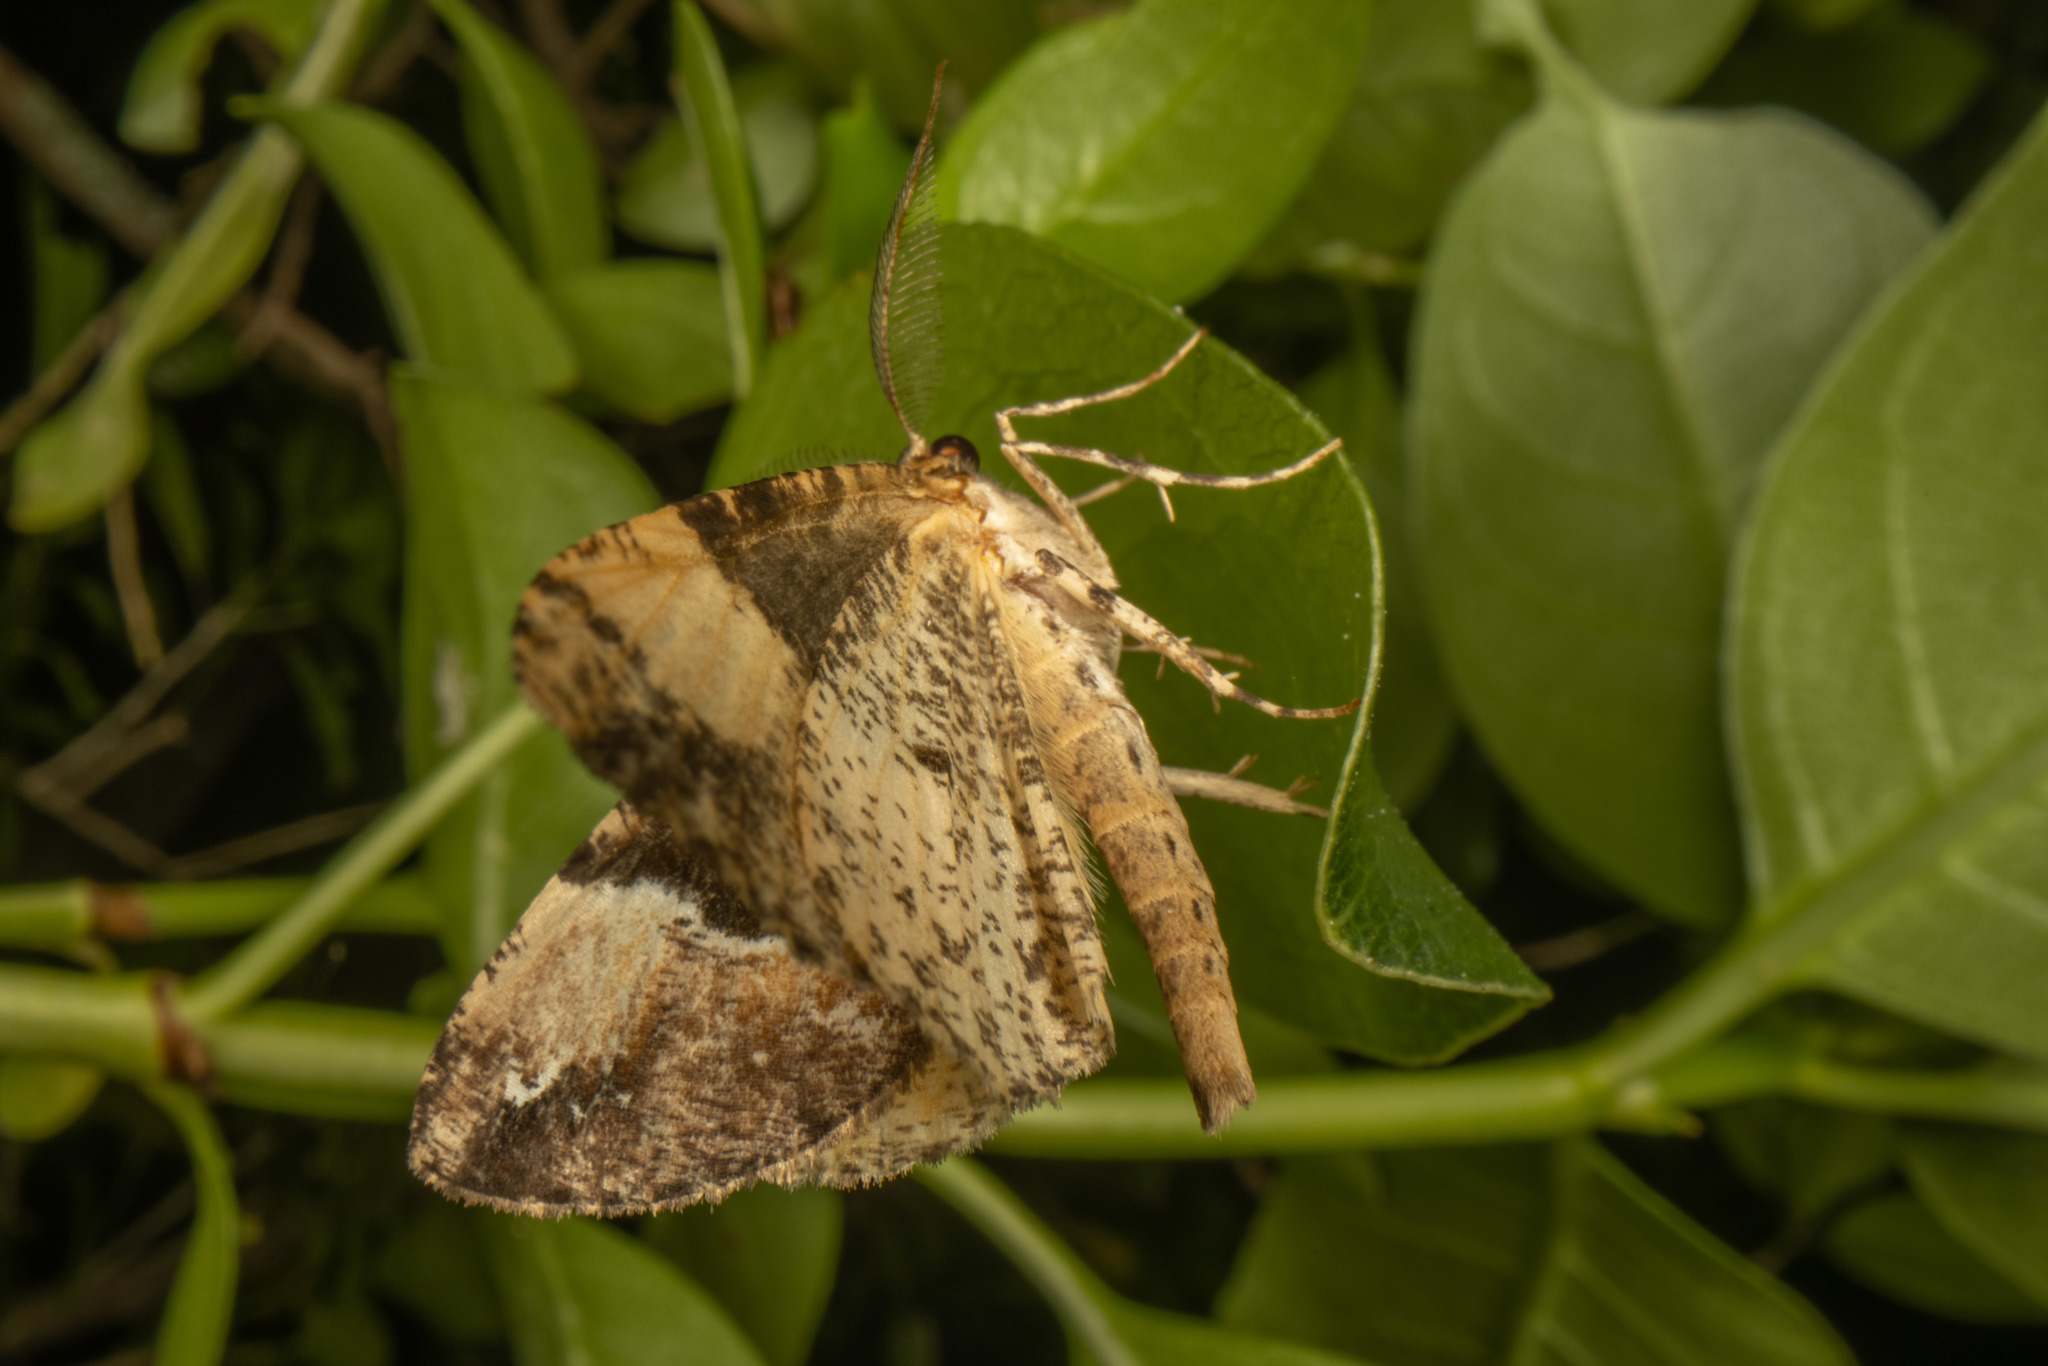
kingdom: Animalia
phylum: Arthropoda
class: Insecta
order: Lepidoptera
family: Geometridae
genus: Pseudocoremia
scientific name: Pseudocoremia insignita
